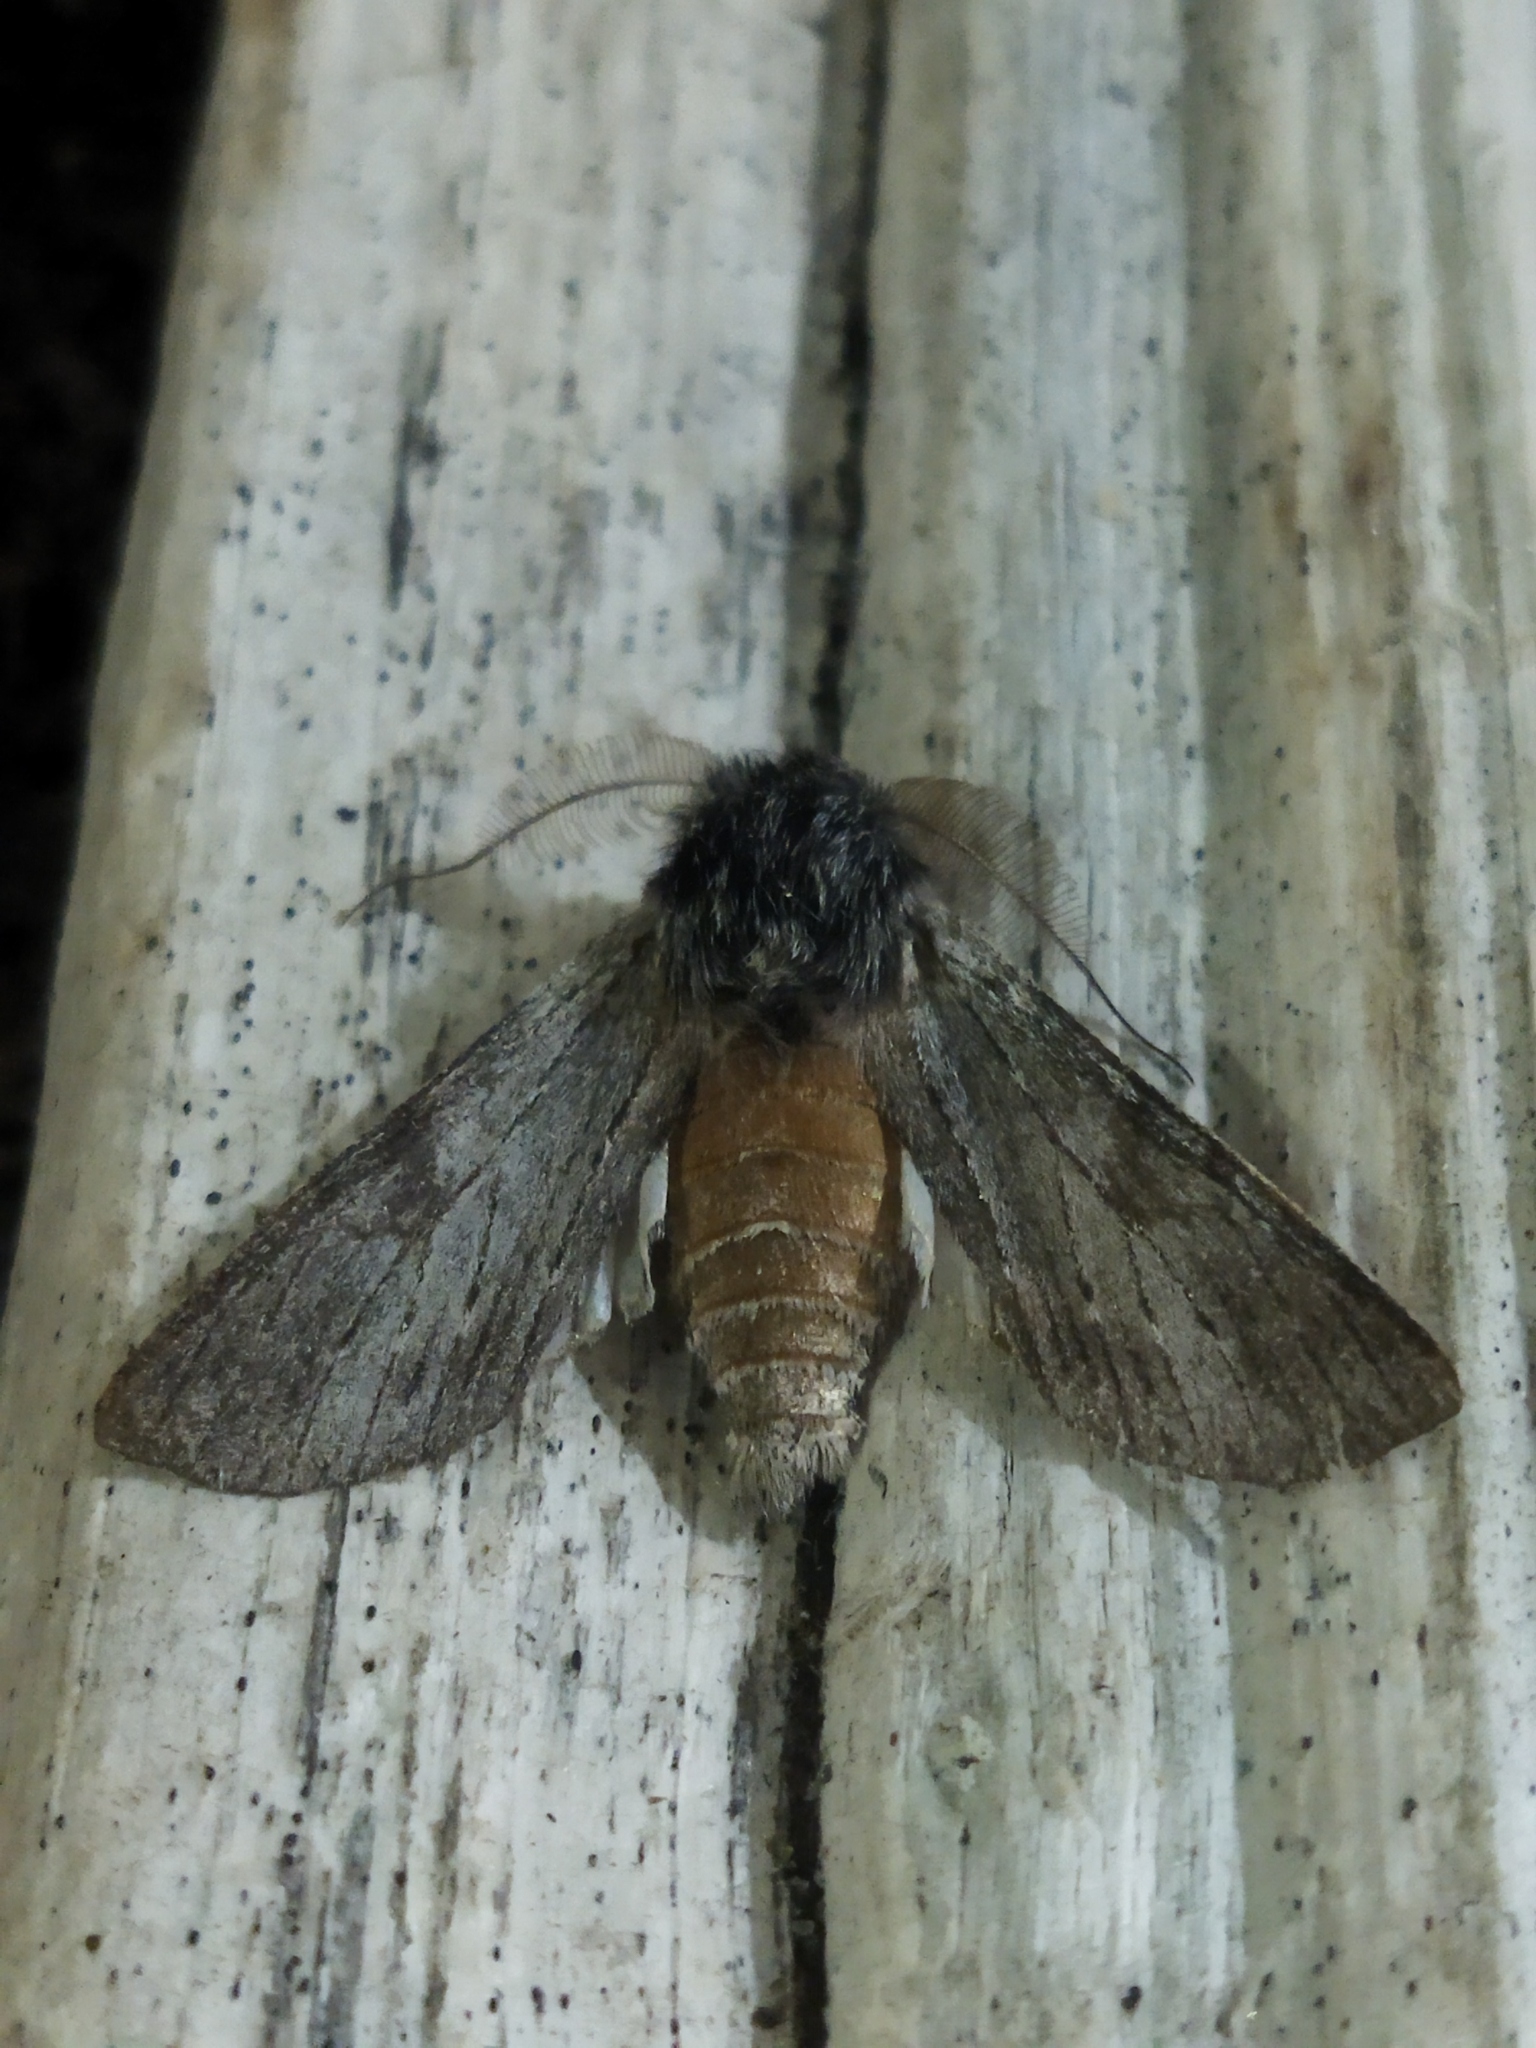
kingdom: Animalia
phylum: Arthropoda
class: Insecta
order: Lepidoptera
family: Notodontidae
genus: Dicranura
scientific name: Dicranura ulmi
